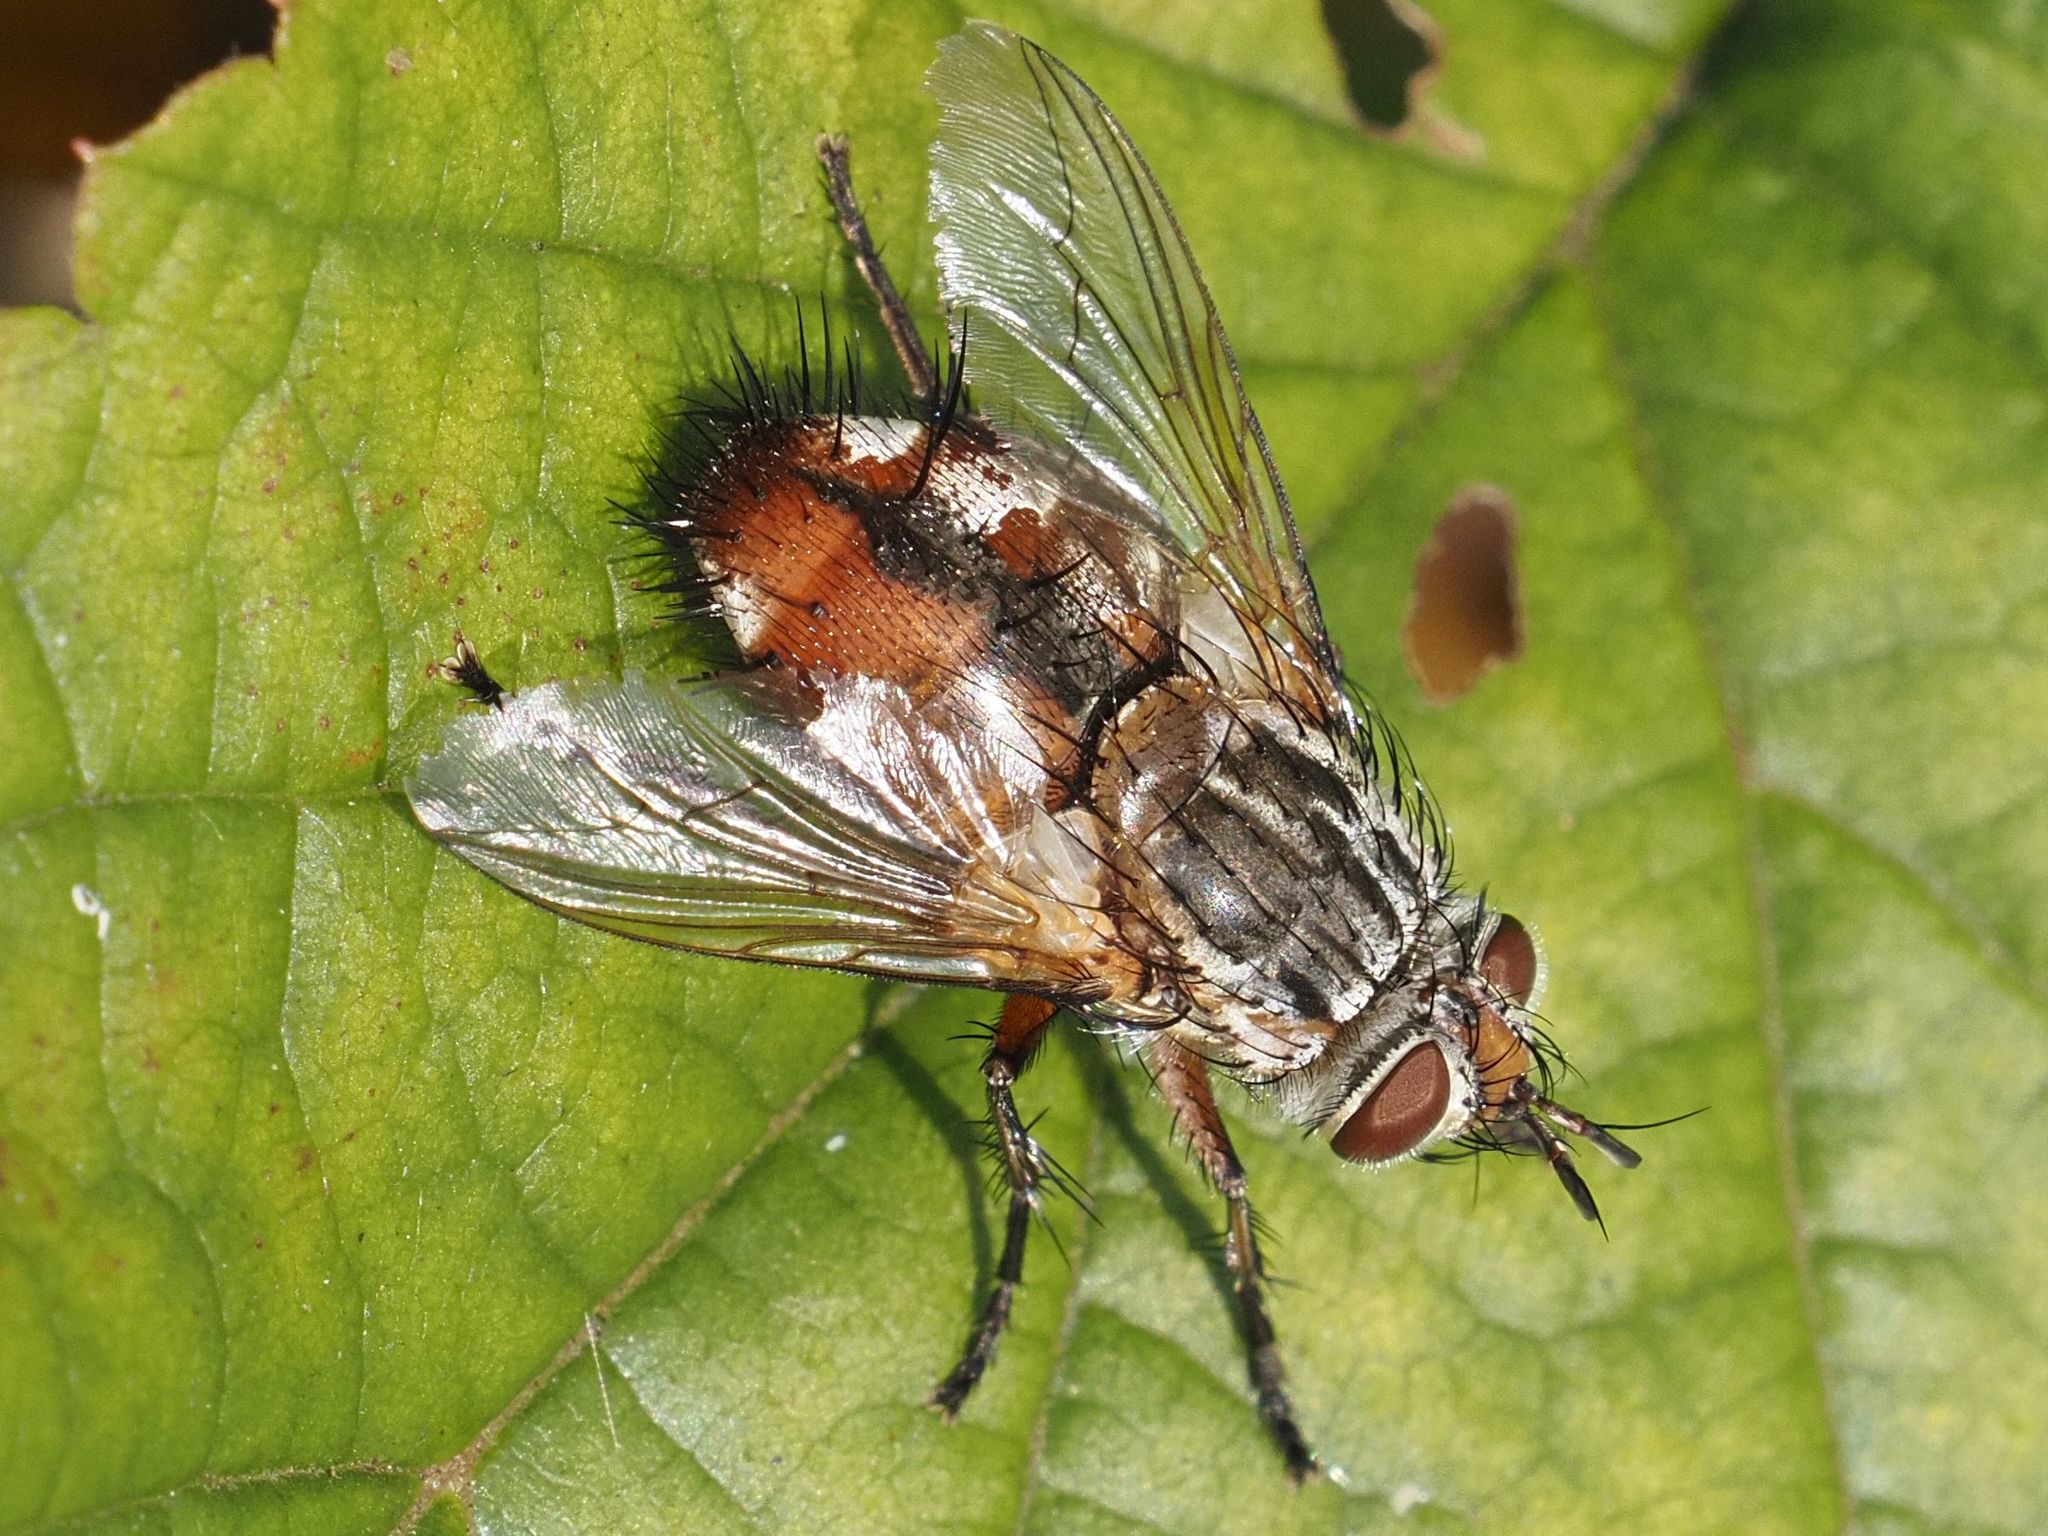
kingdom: Animalia
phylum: Arthropoda
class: Insecta
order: Diptera
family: Tachinidae
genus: Linnaemya
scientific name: Linnaemya vulpina
